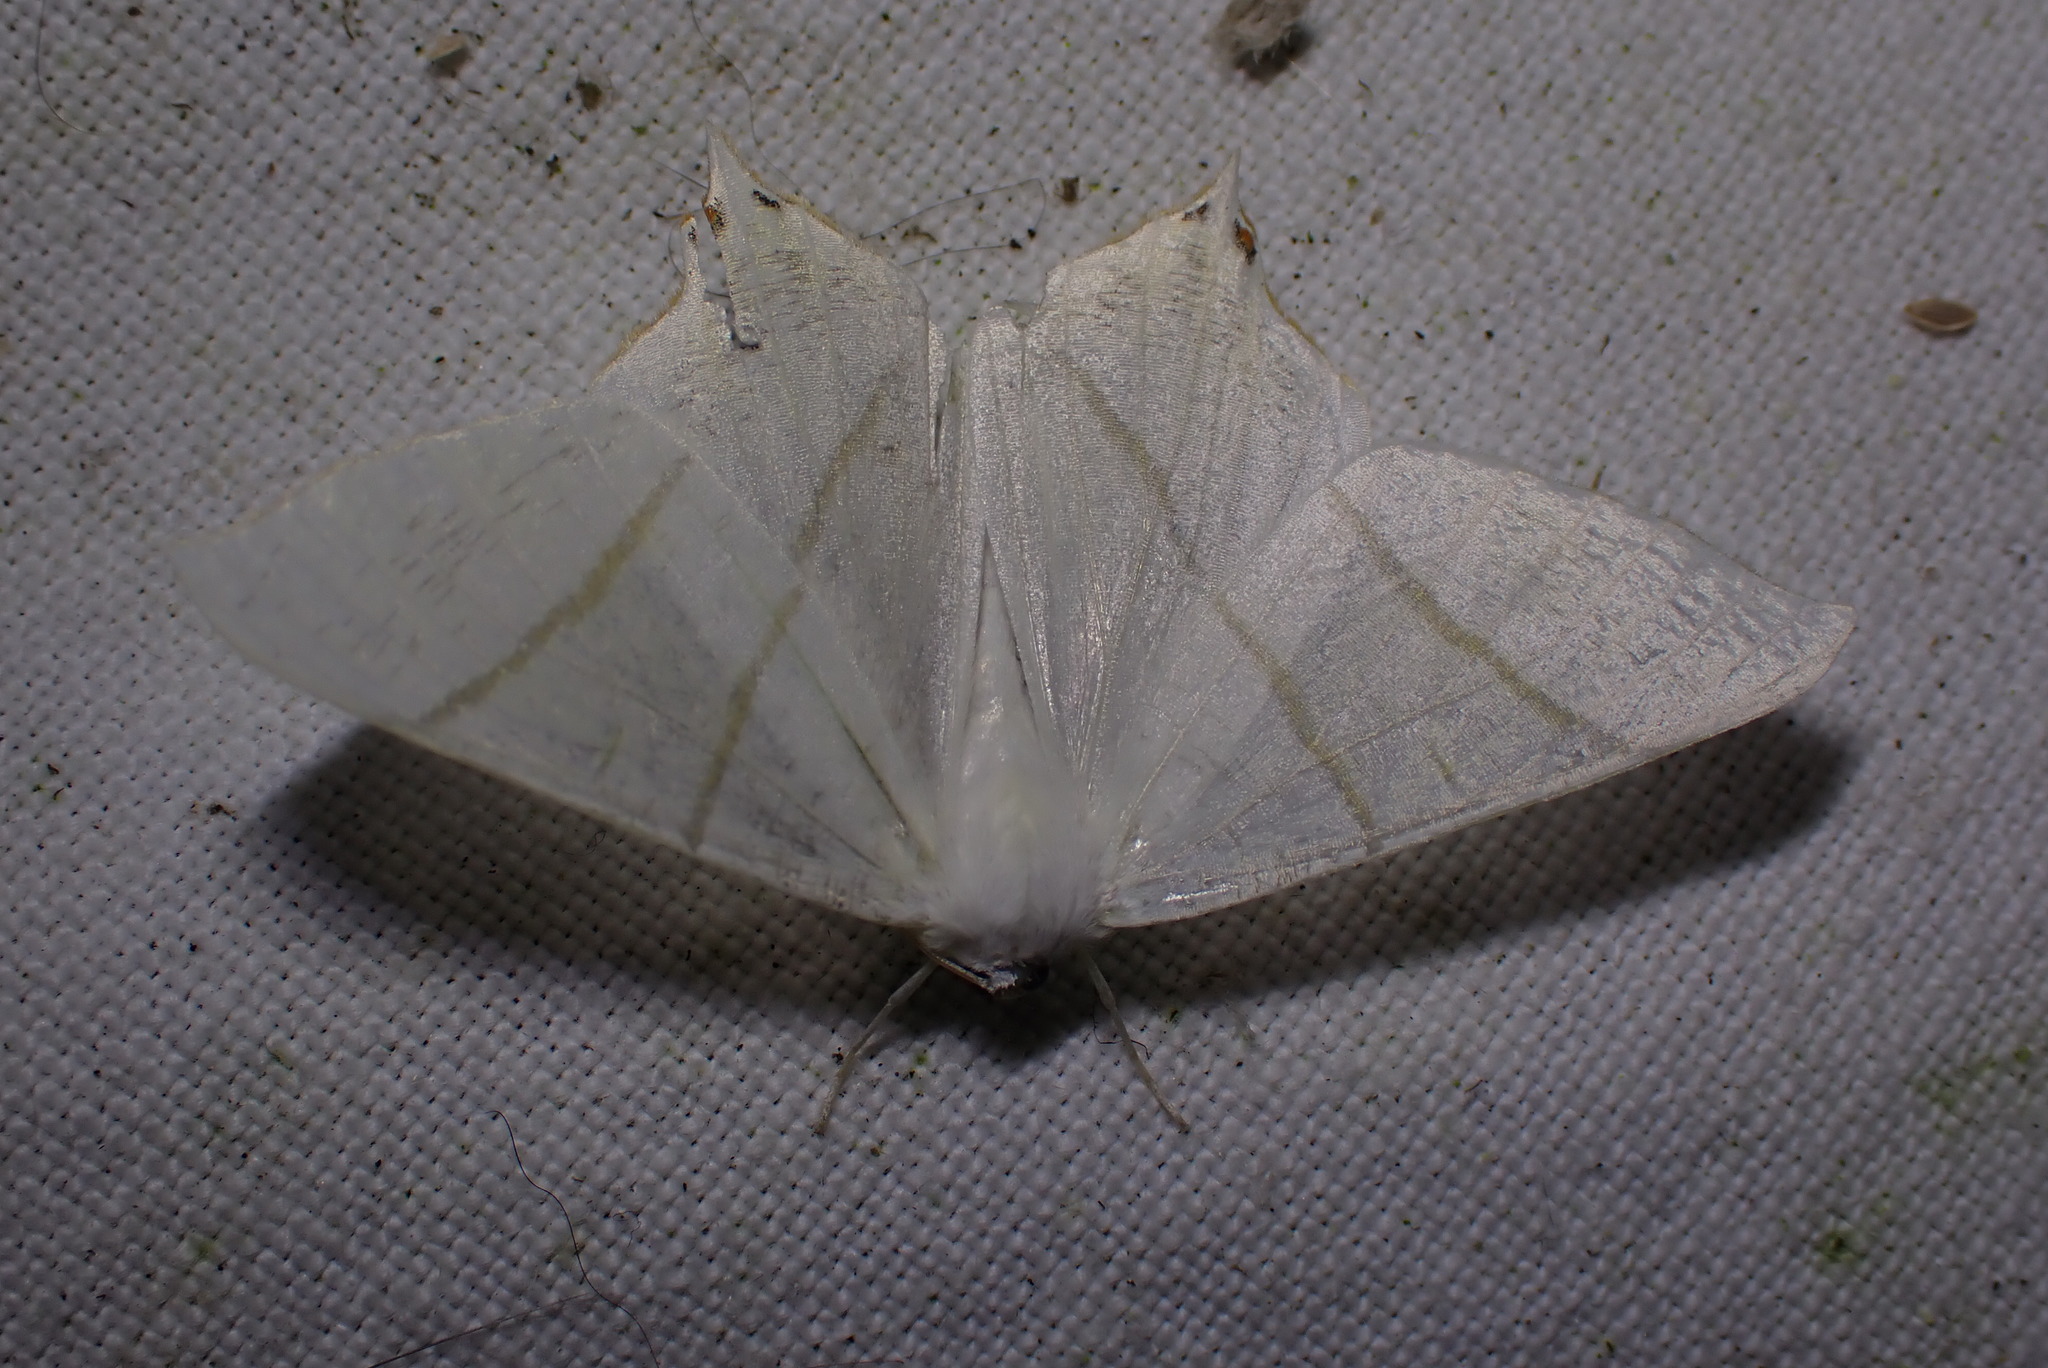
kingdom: Animalia
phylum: Arthropoda
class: Insecta
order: Lepidoptera
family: Geometridae
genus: Ourapteryx
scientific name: Ourapteryx sambucaria
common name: Swallow-tailed moth
